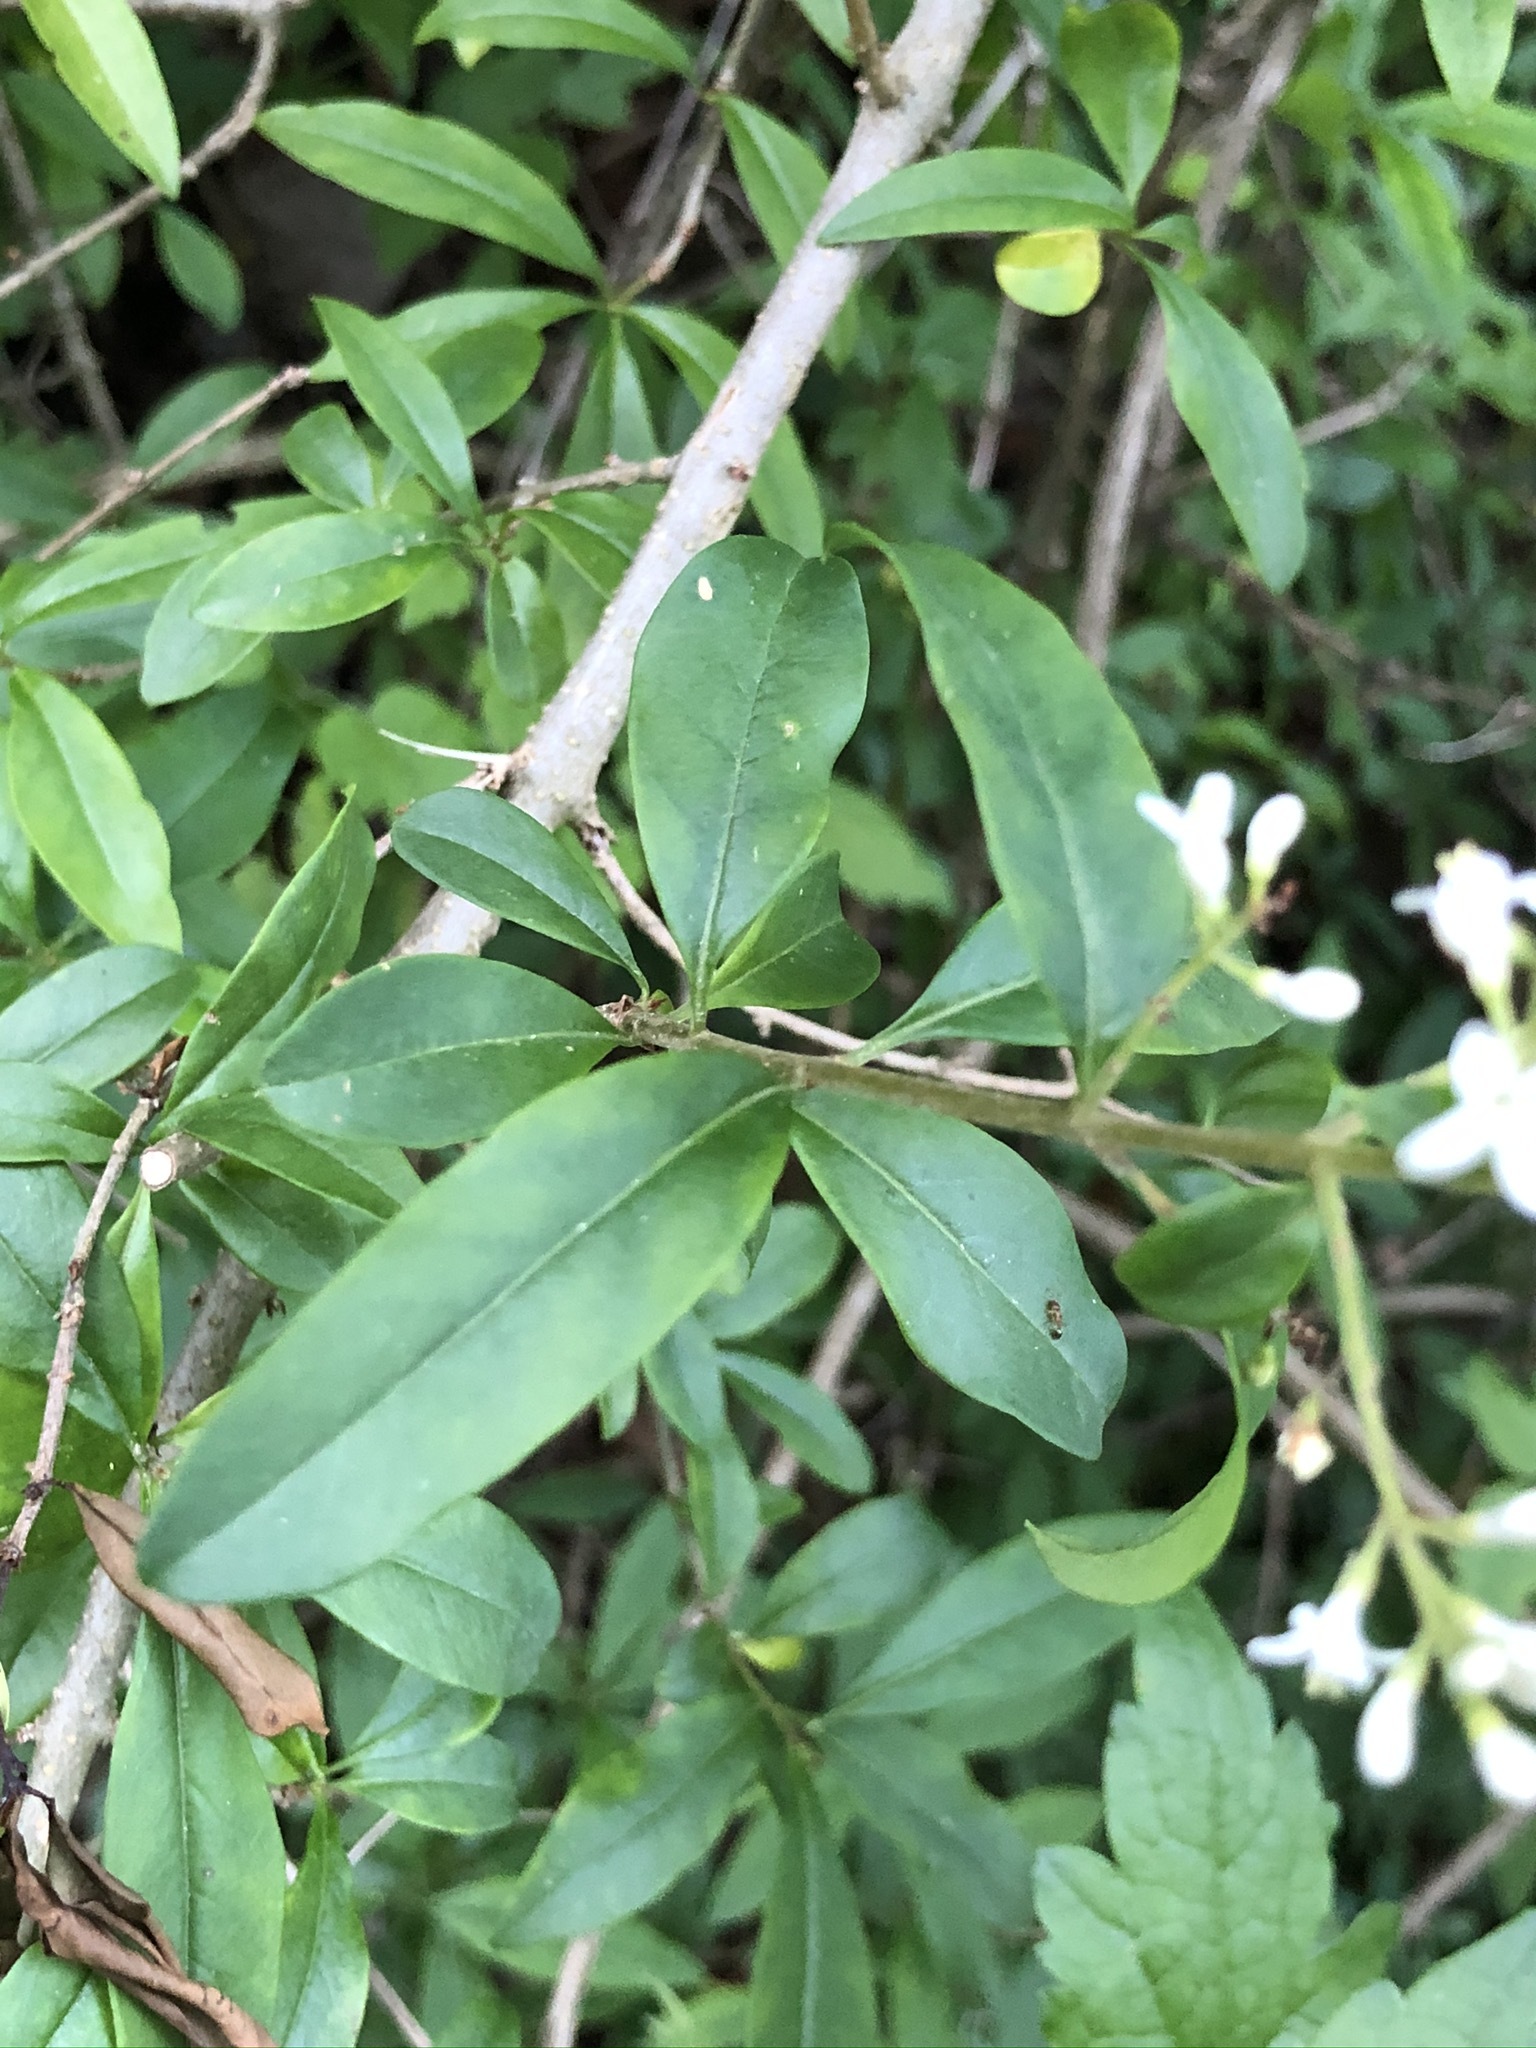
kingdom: Plantae
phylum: Tracheophyta
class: Magnoliopsida
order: Lamiales
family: Oleaceae
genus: Ligustrum
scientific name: Ligustrum vulgare
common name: Wild privet
